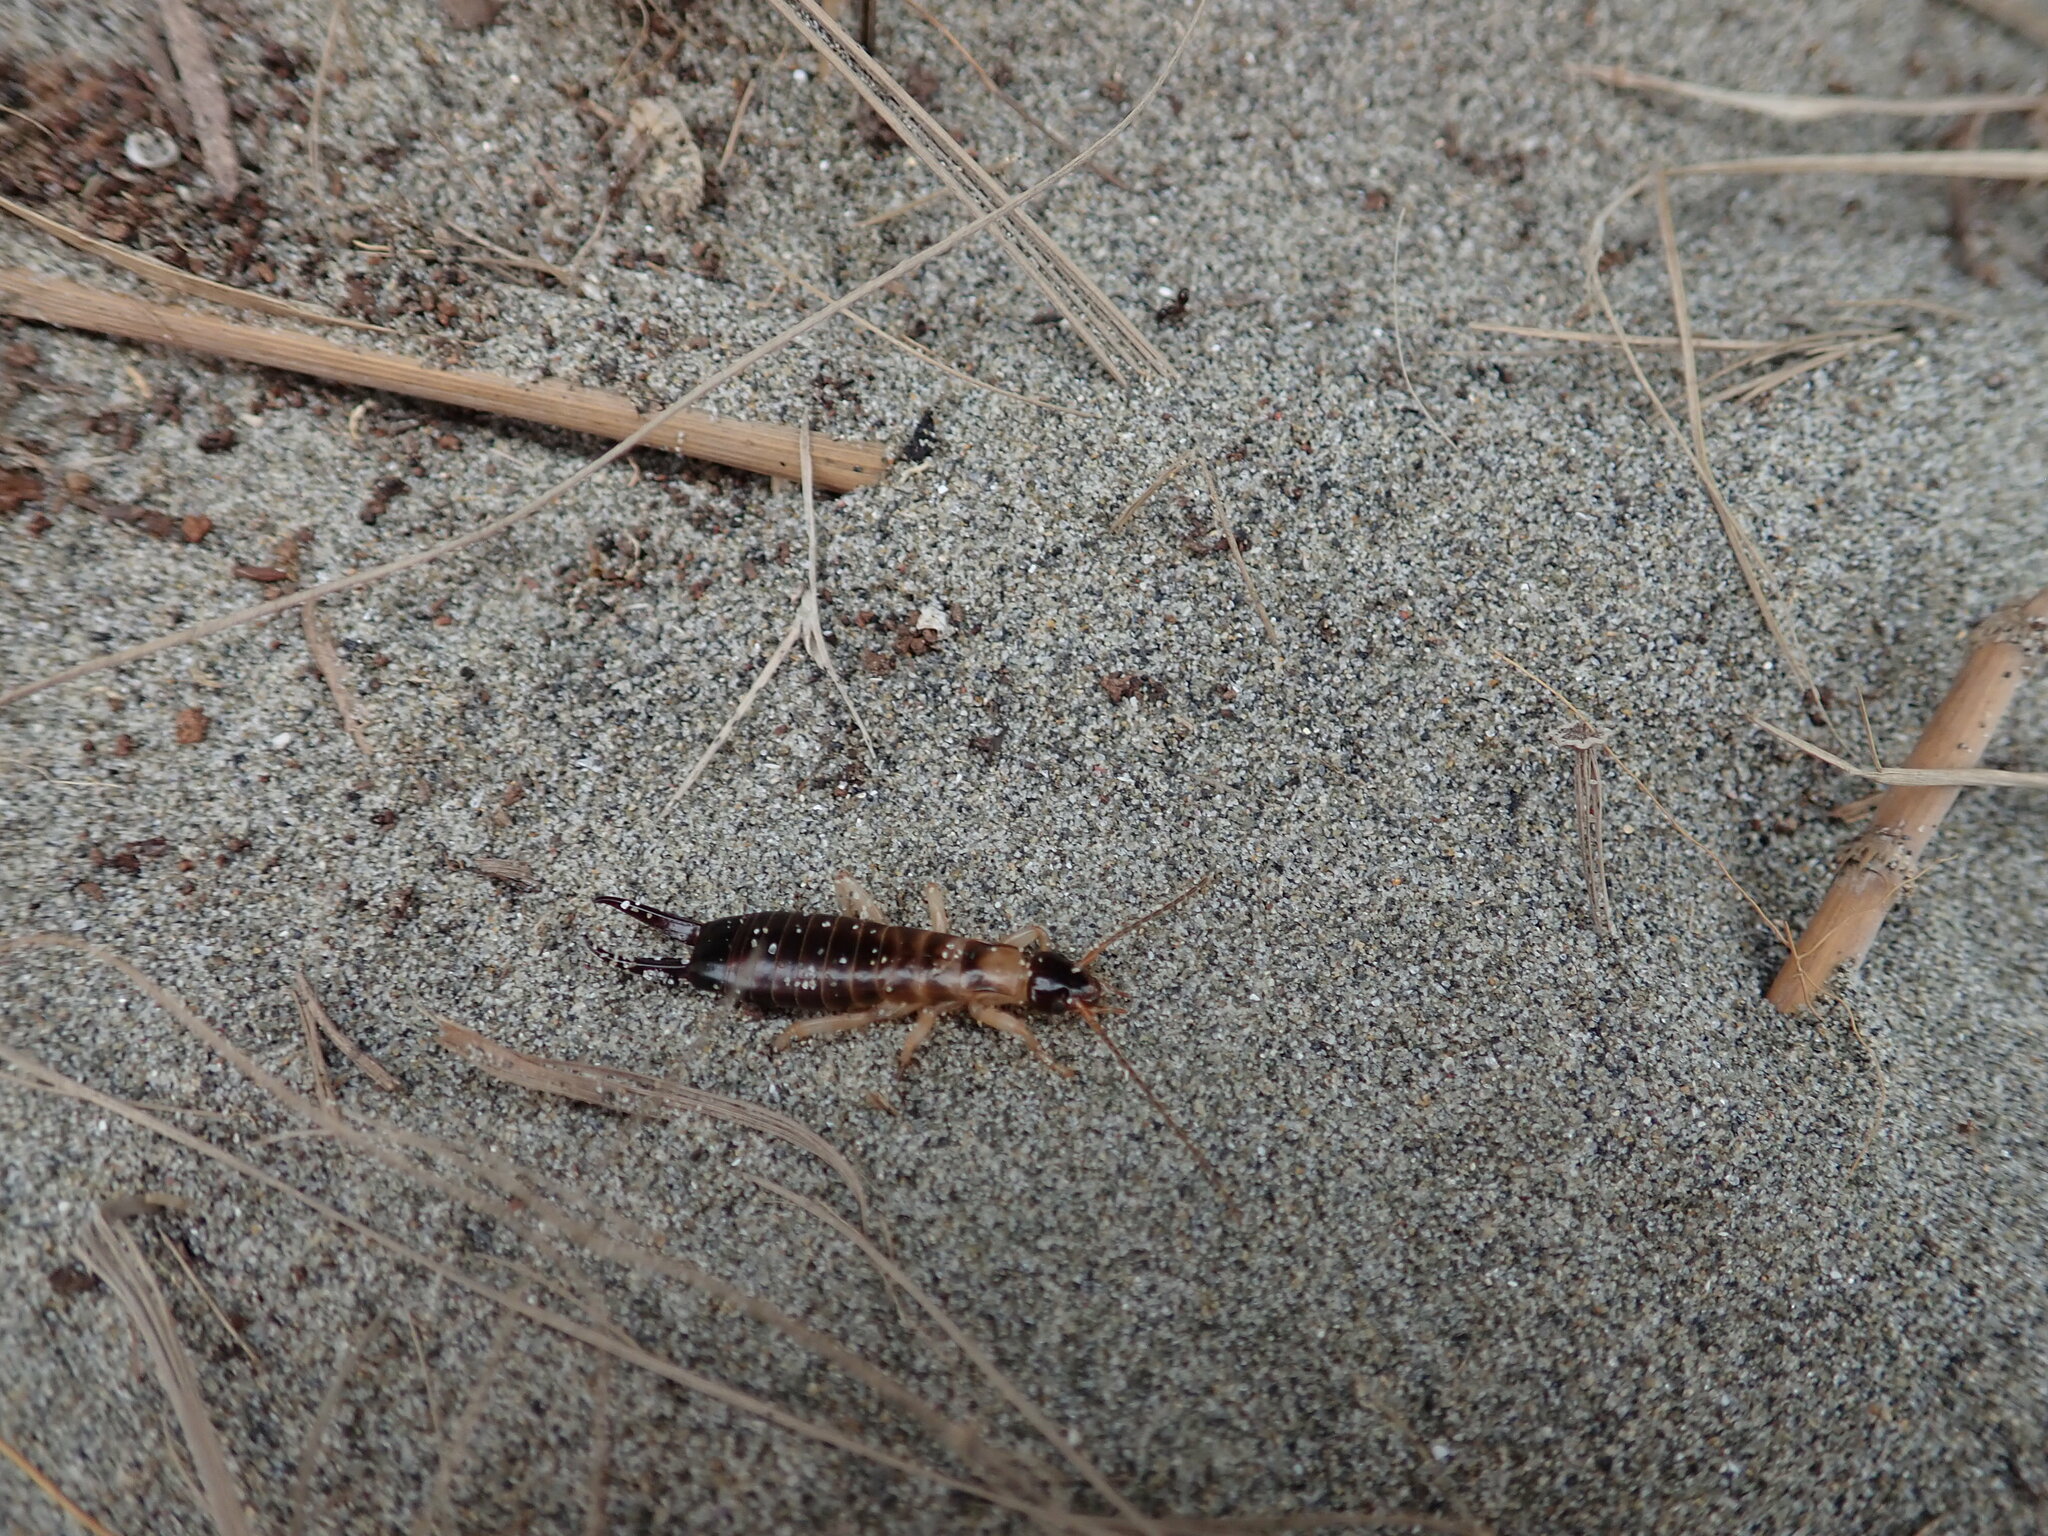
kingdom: Animalia
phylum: Arthropoda
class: Insecta
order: Dermaptera
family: Anisolabididae
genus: Anisolabis
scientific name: Anisolabis littorea
